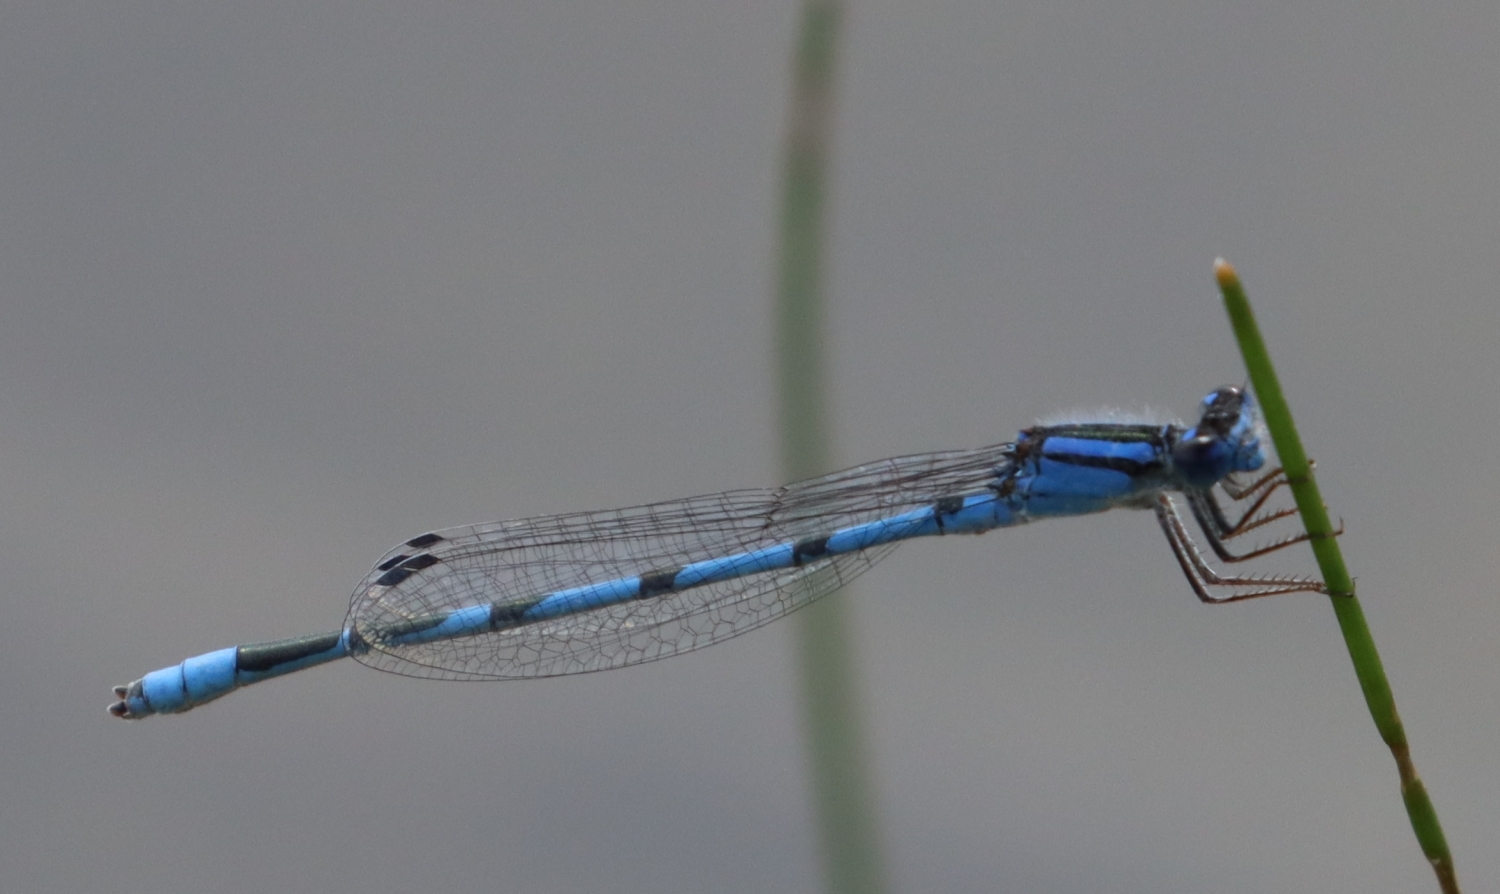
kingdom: Animalia
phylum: Arthropoda
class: Insecta
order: Odonata
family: Coenagrionidae
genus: Enallagma
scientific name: Enallagma civile
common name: Damselfly
